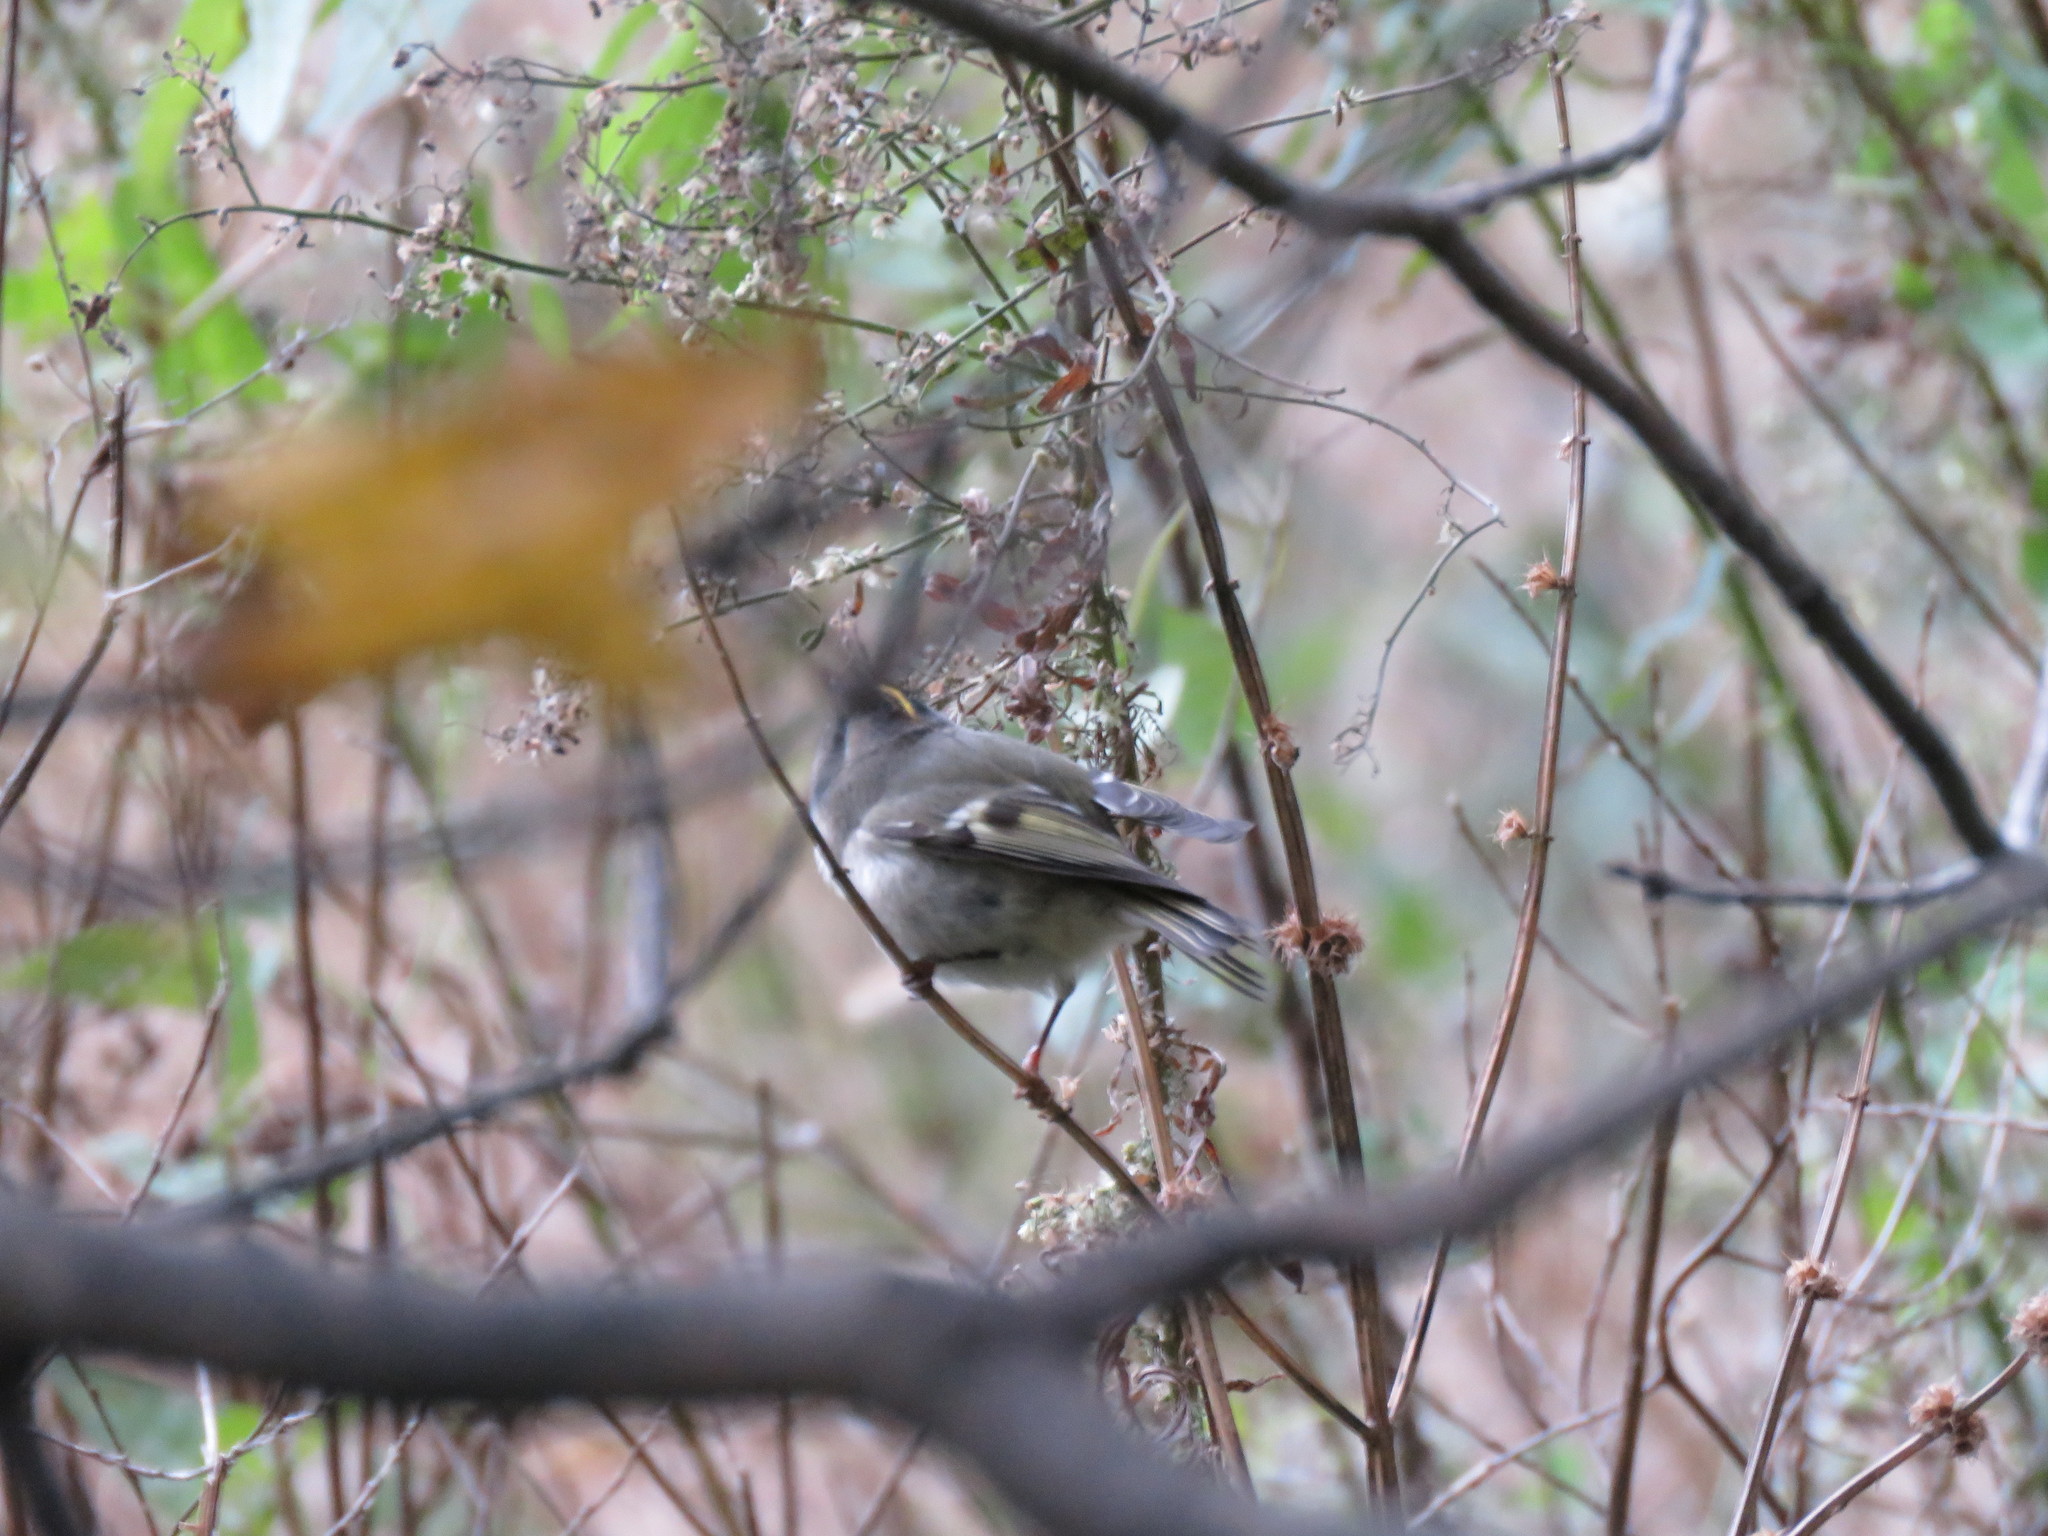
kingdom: Animalia
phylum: Chordata
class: Aves
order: Passeriformes
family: Regulidae
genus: Regulus
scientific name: Regulus satrapa
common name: Golden-crowned kinglet
